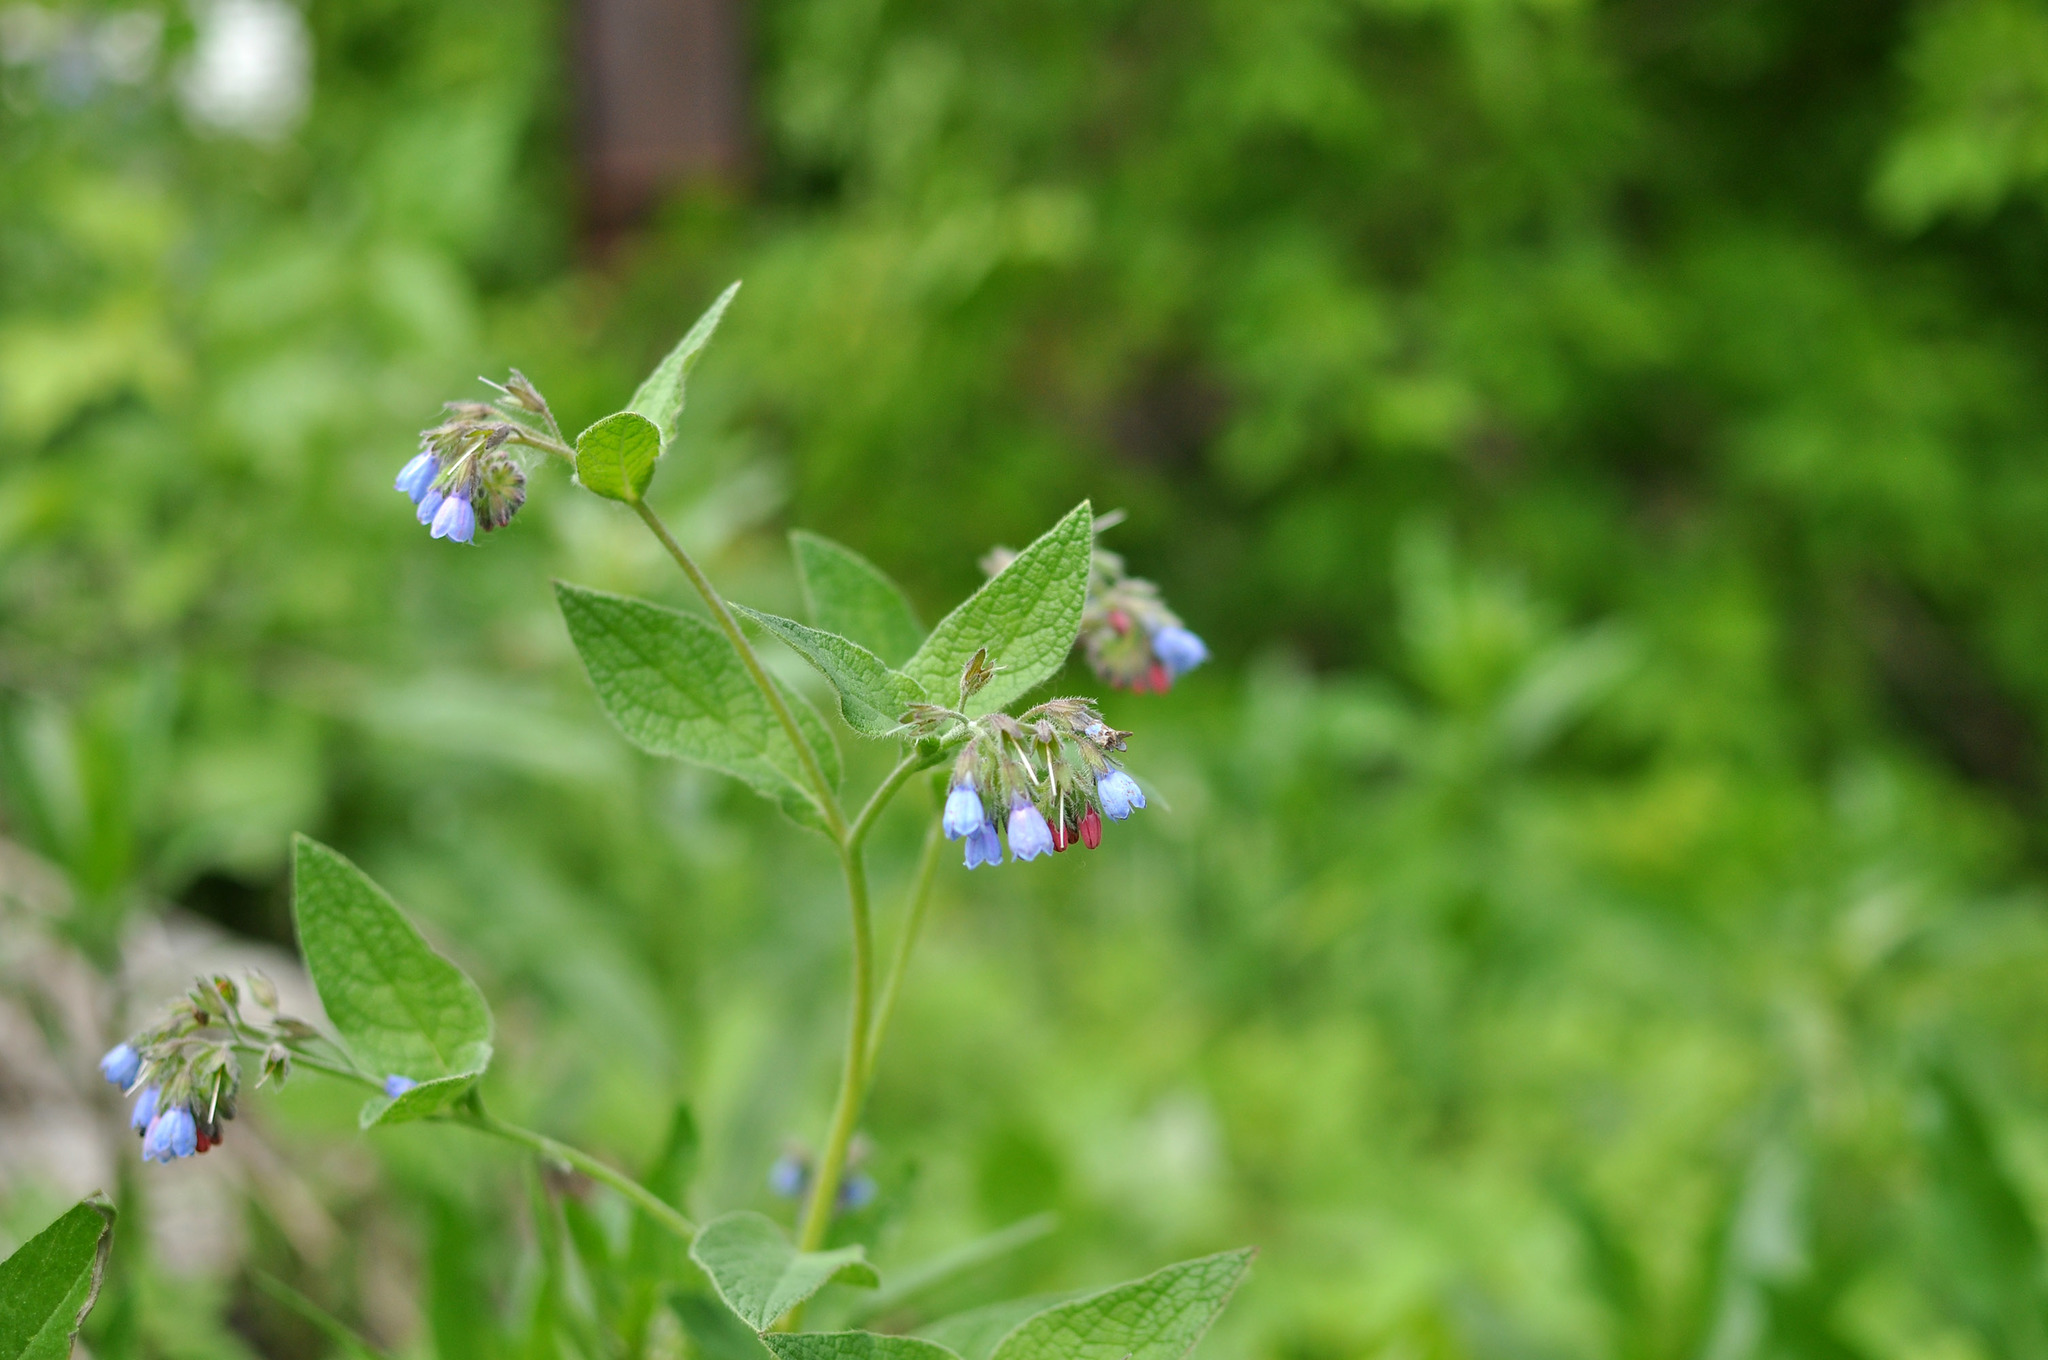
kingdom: Plantae
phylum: Tracheophyta
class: Magnoliopsida
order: Boraginales
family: Boraginaceae
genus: Symphytum
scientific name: Symphytum caucasicum
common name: Caucasian comfrey
